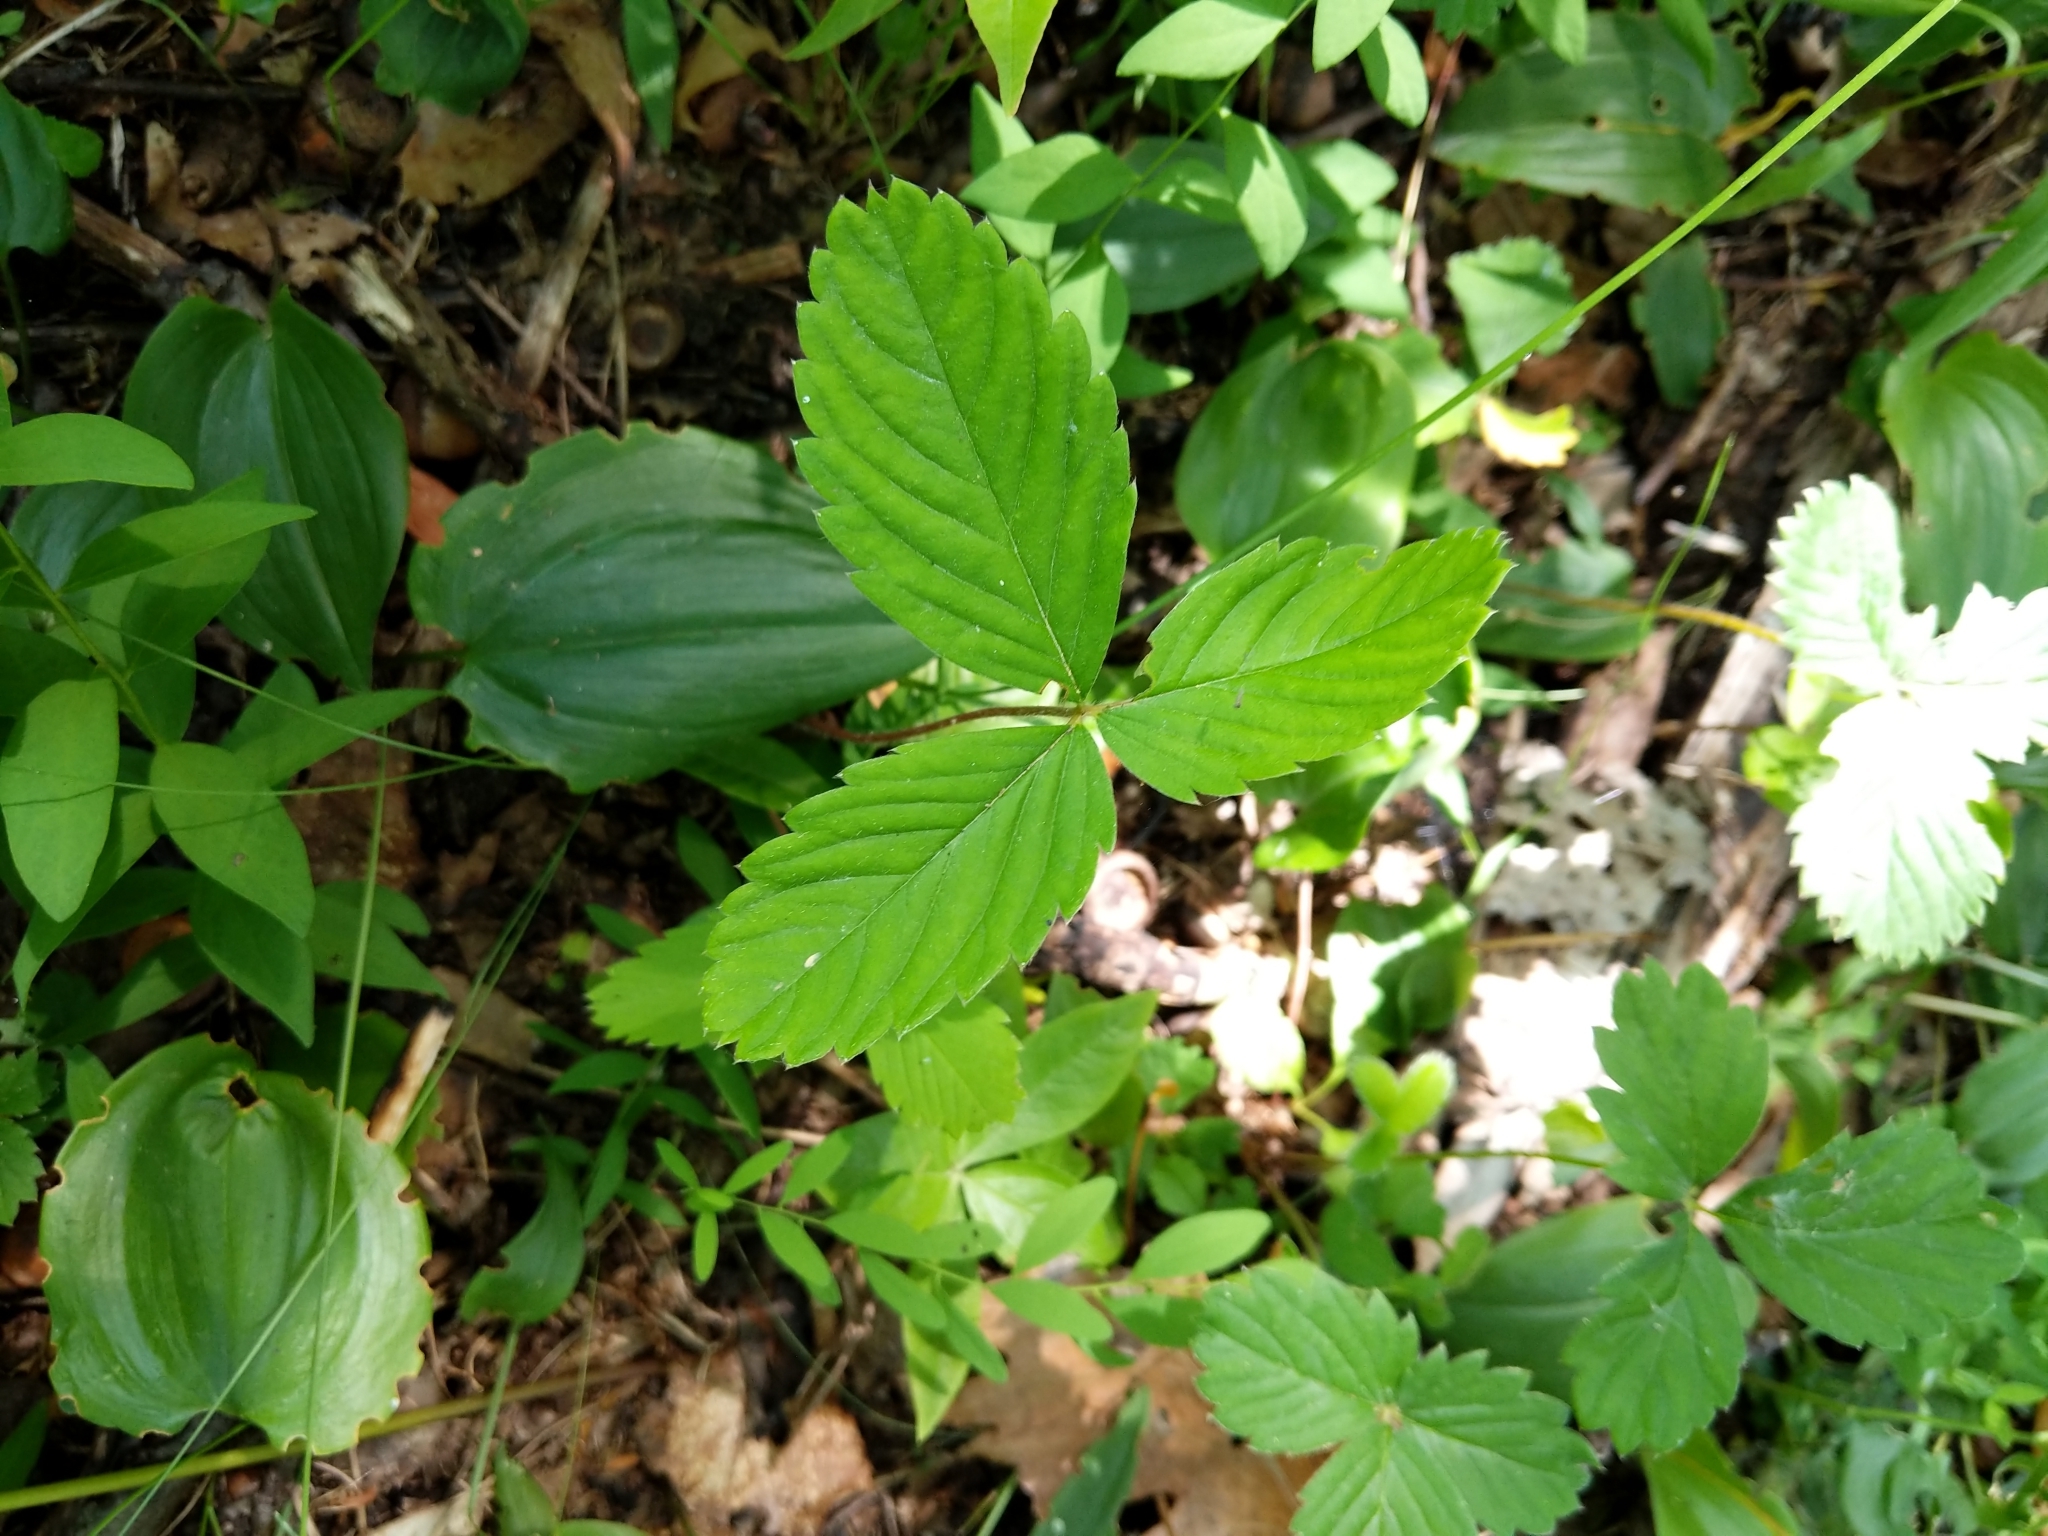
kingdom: Plantae
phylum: Tracheophyta
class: Magnoliopsida
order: Rosales
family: Rosaceae
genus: Fragaria
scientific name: Fragaria virginiana
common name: Thickleaved wild strawberry
